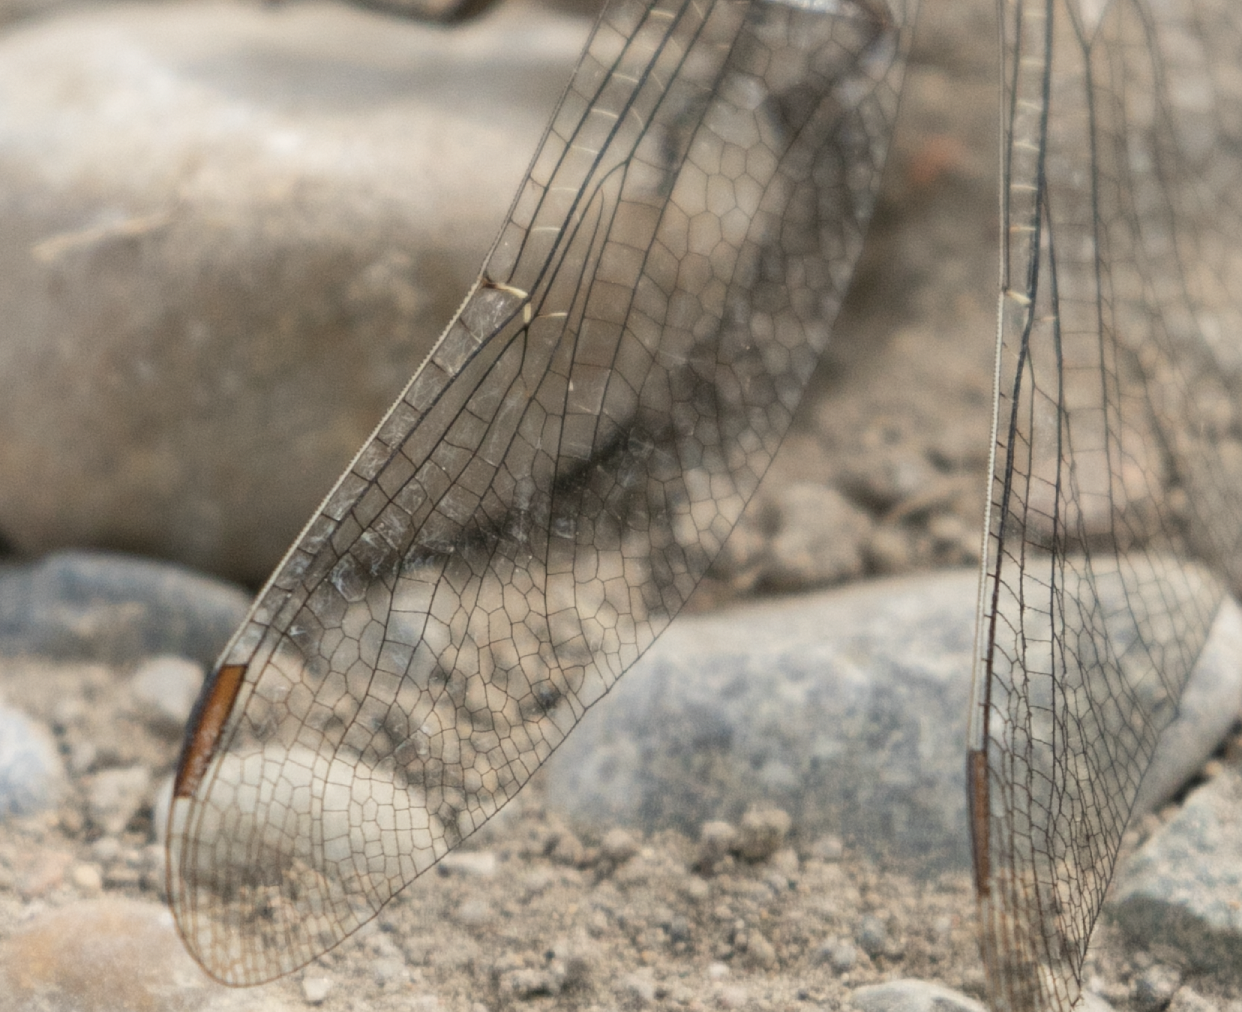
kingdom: Animalia
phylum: Arthropoda
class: Insecta
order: Odonata
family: Libellulidae
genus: Orthetrum
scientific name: Orthetrum brunneum
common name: Southern skimmer
